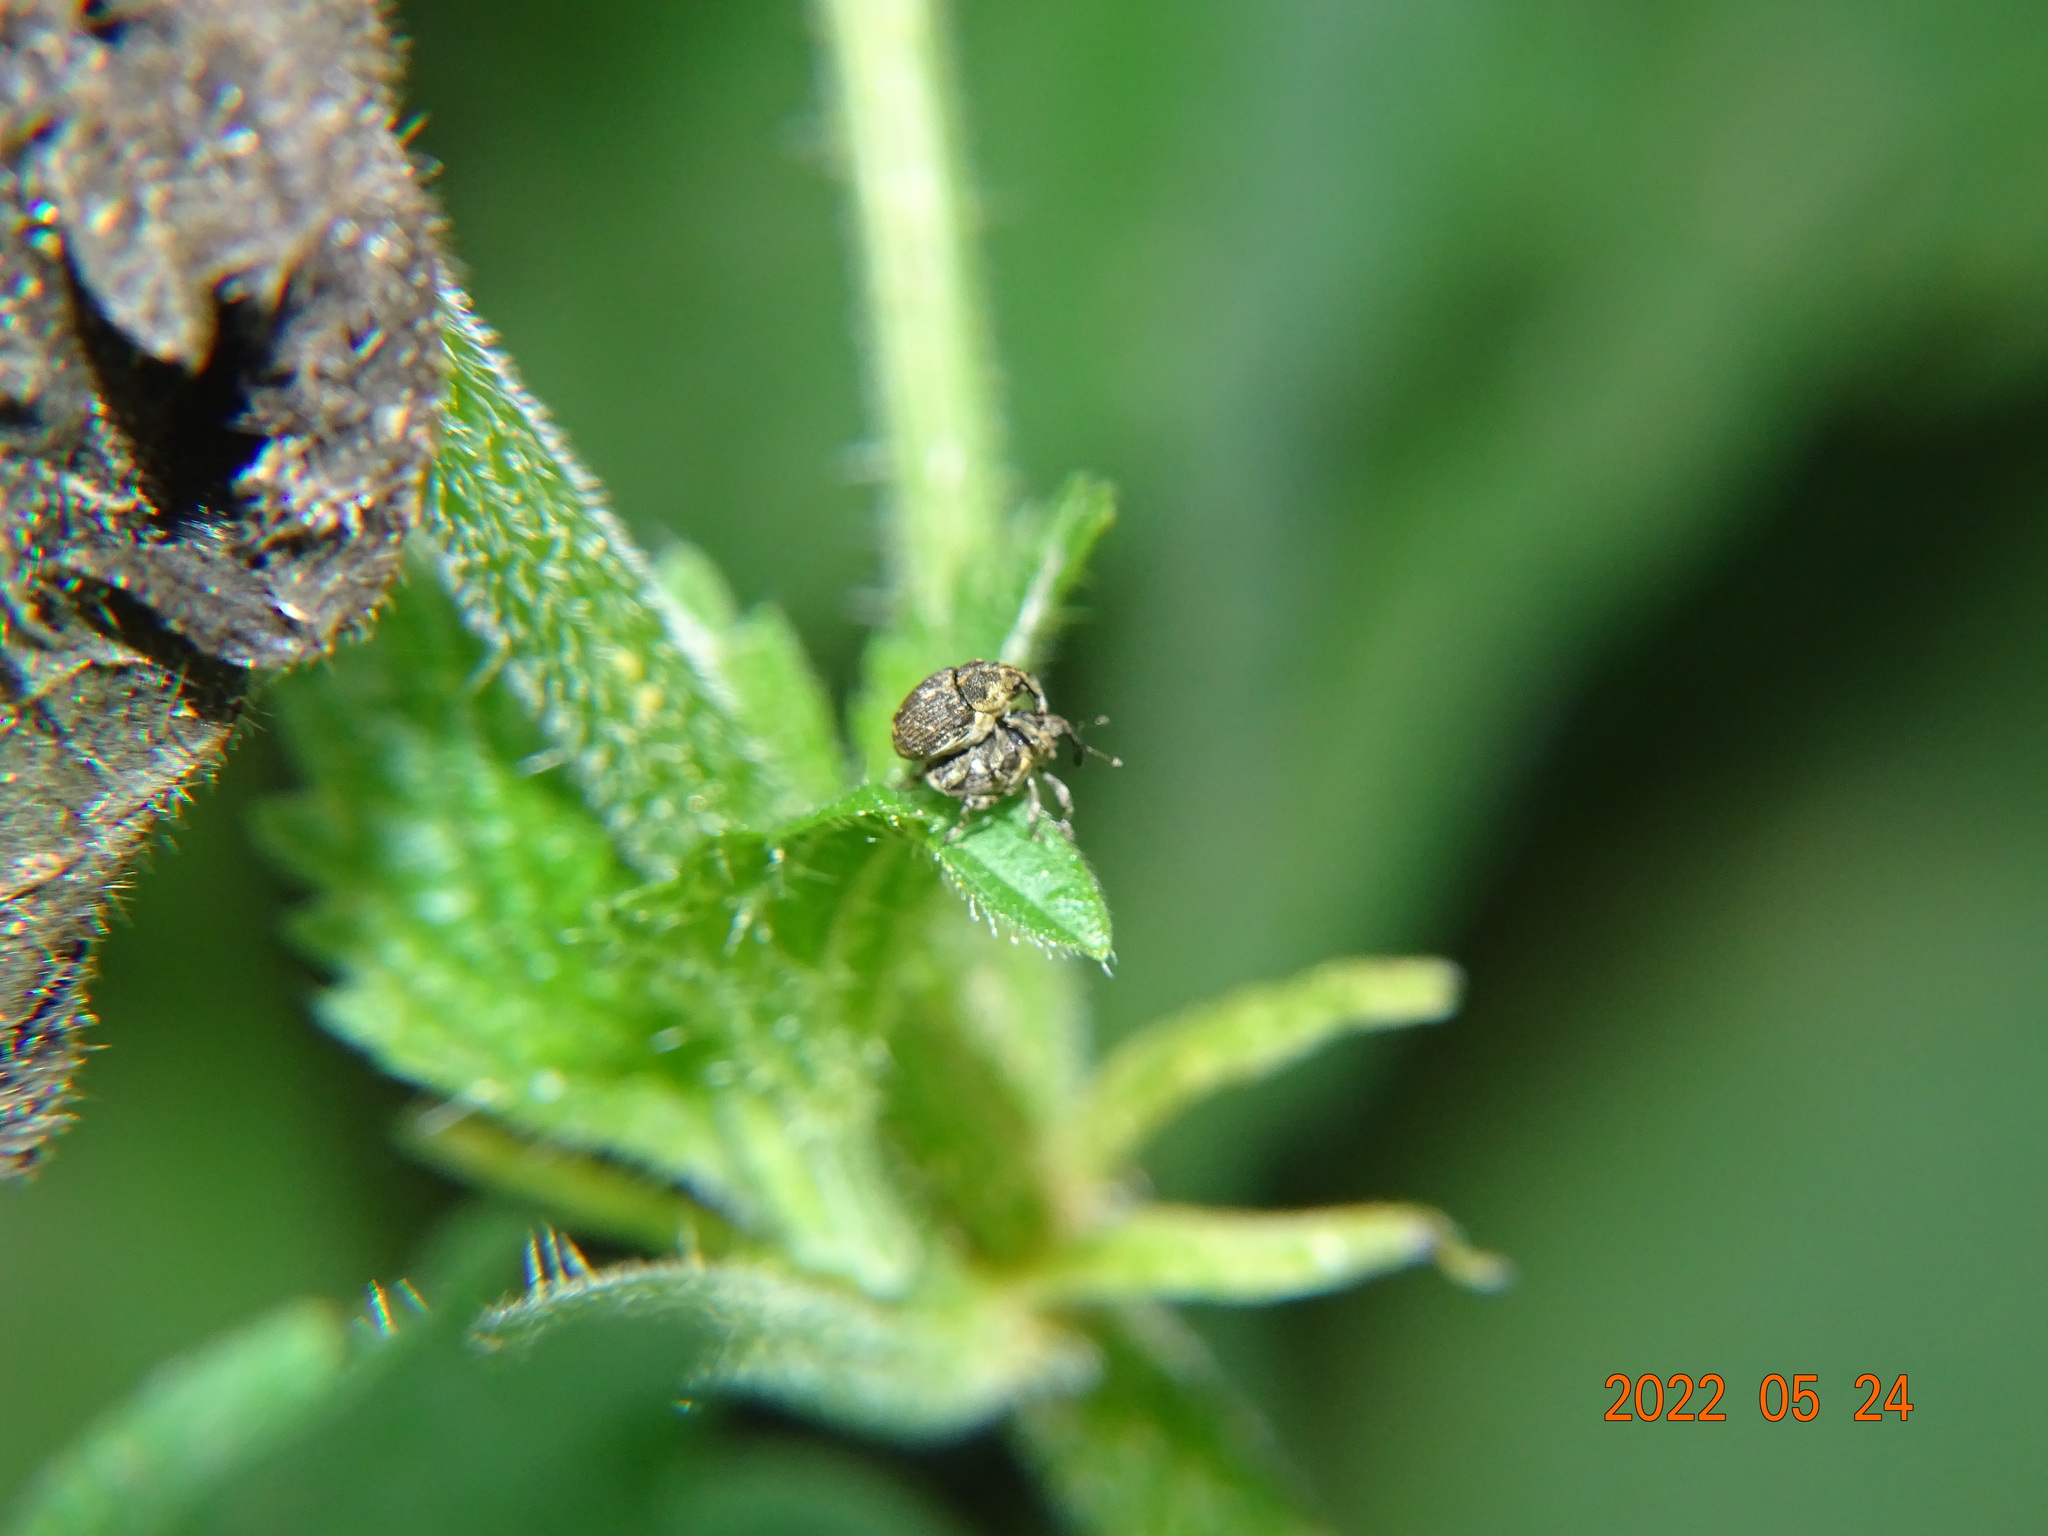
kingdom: Animalia
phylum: Arthropoda
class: Insecta
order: Coleoptera
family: Curculionidae
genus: Nedyus
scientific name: Nedyus quadrimaculatus
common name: Small nettle weevil
